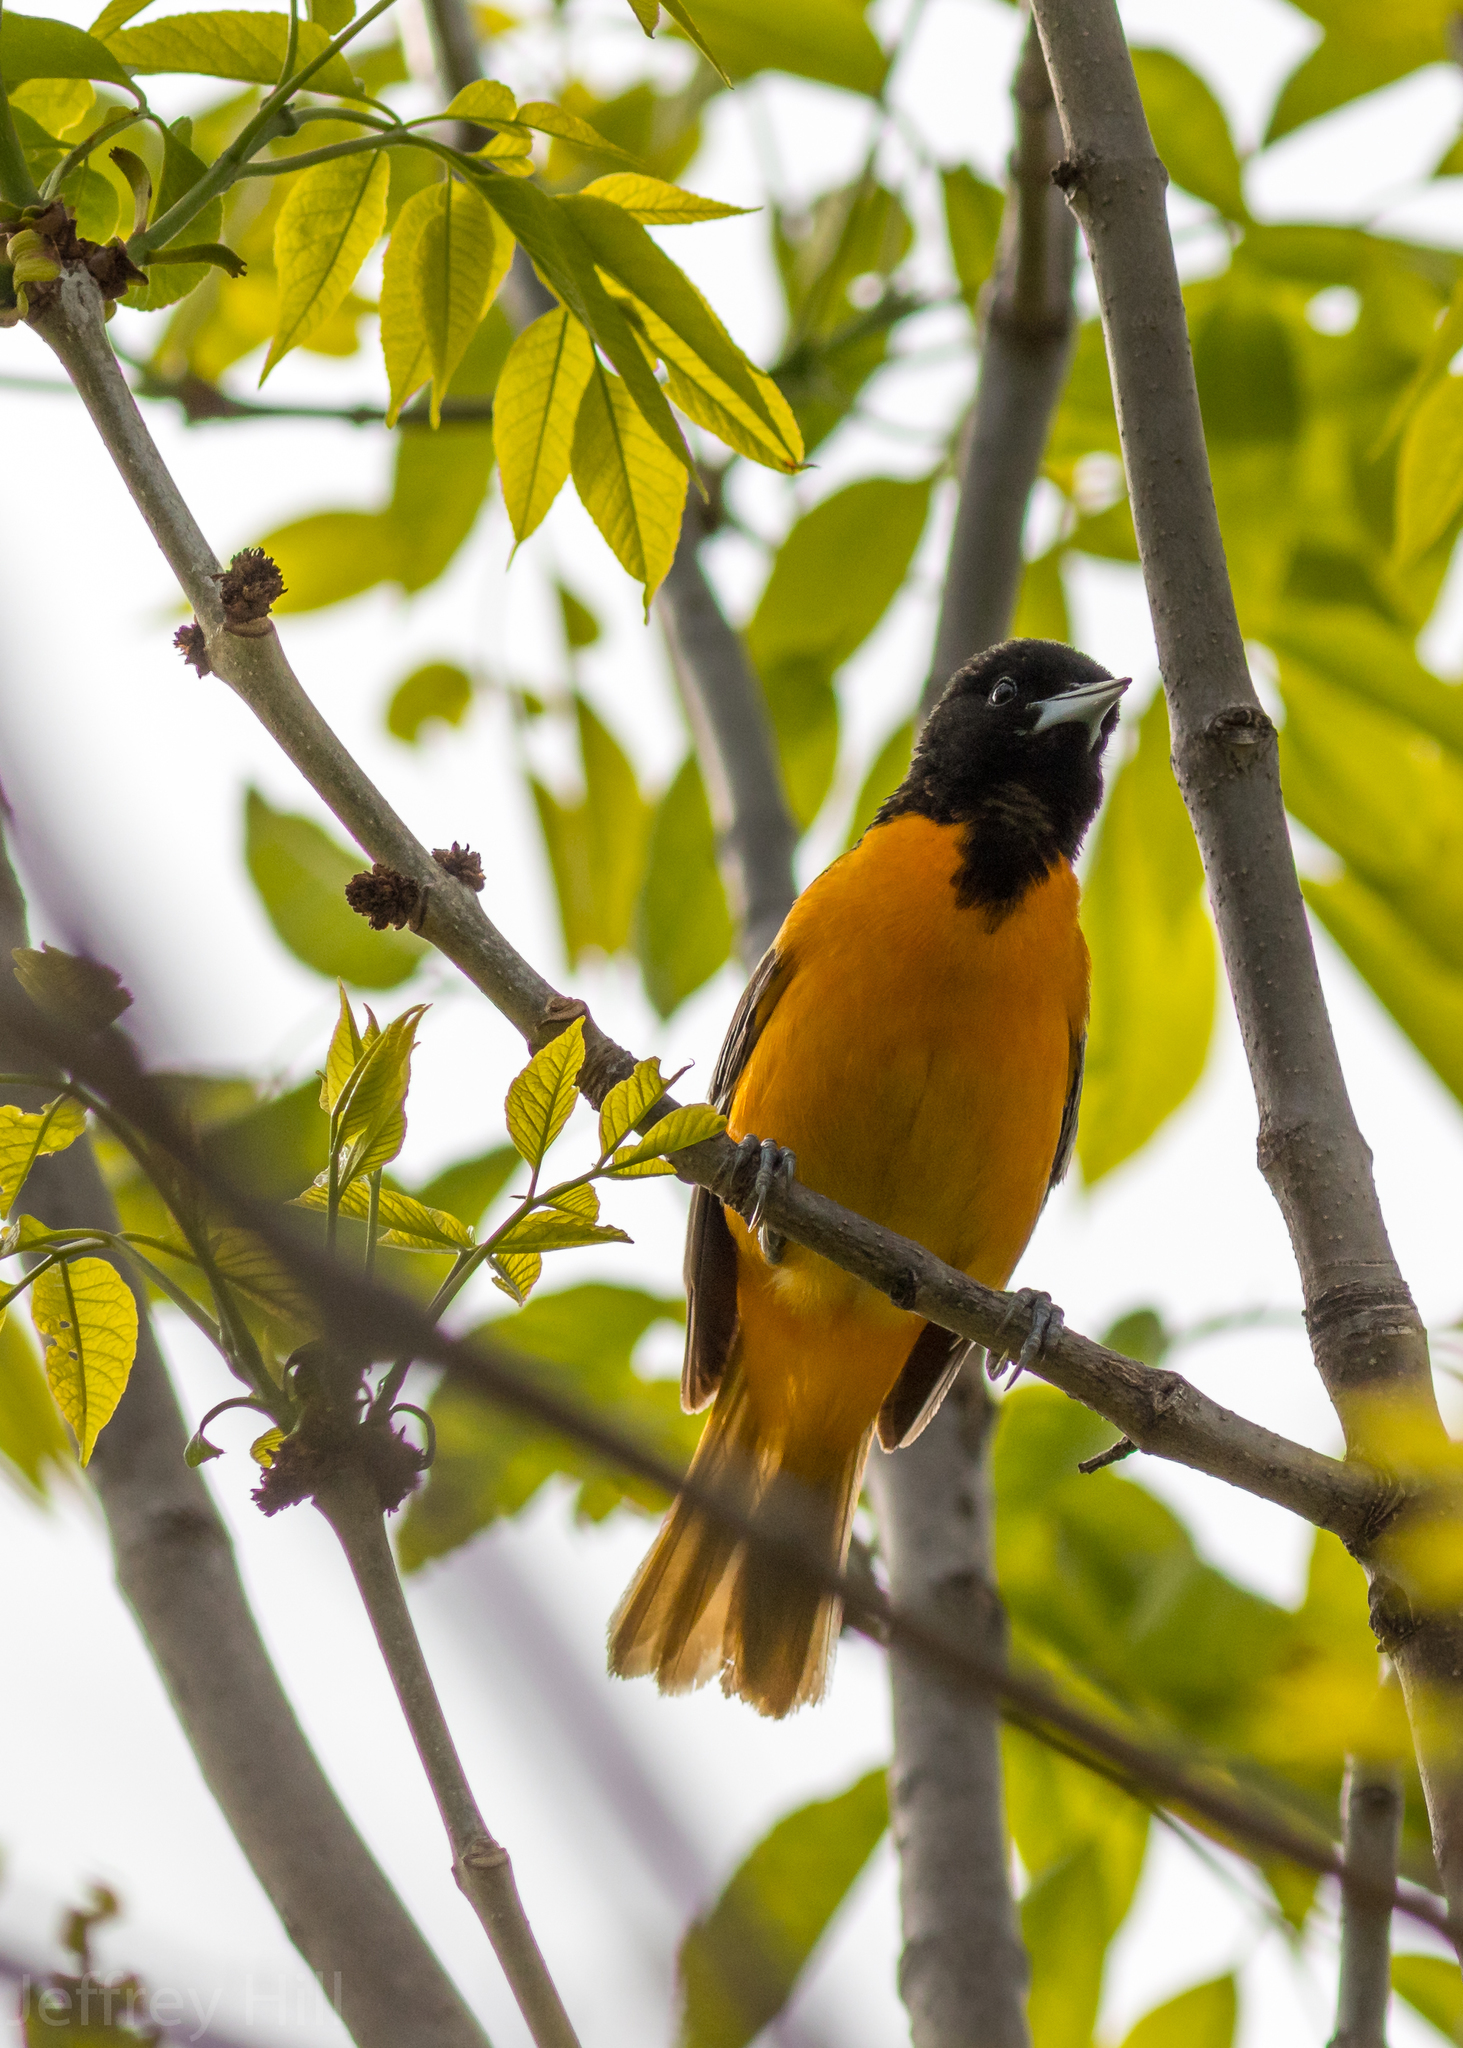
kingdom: Animalia
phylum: Chordata
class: Aves
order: Passeriformes
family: Icteridae
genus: Icterus
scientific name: Icterus galbula
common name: Baltimore oriole
